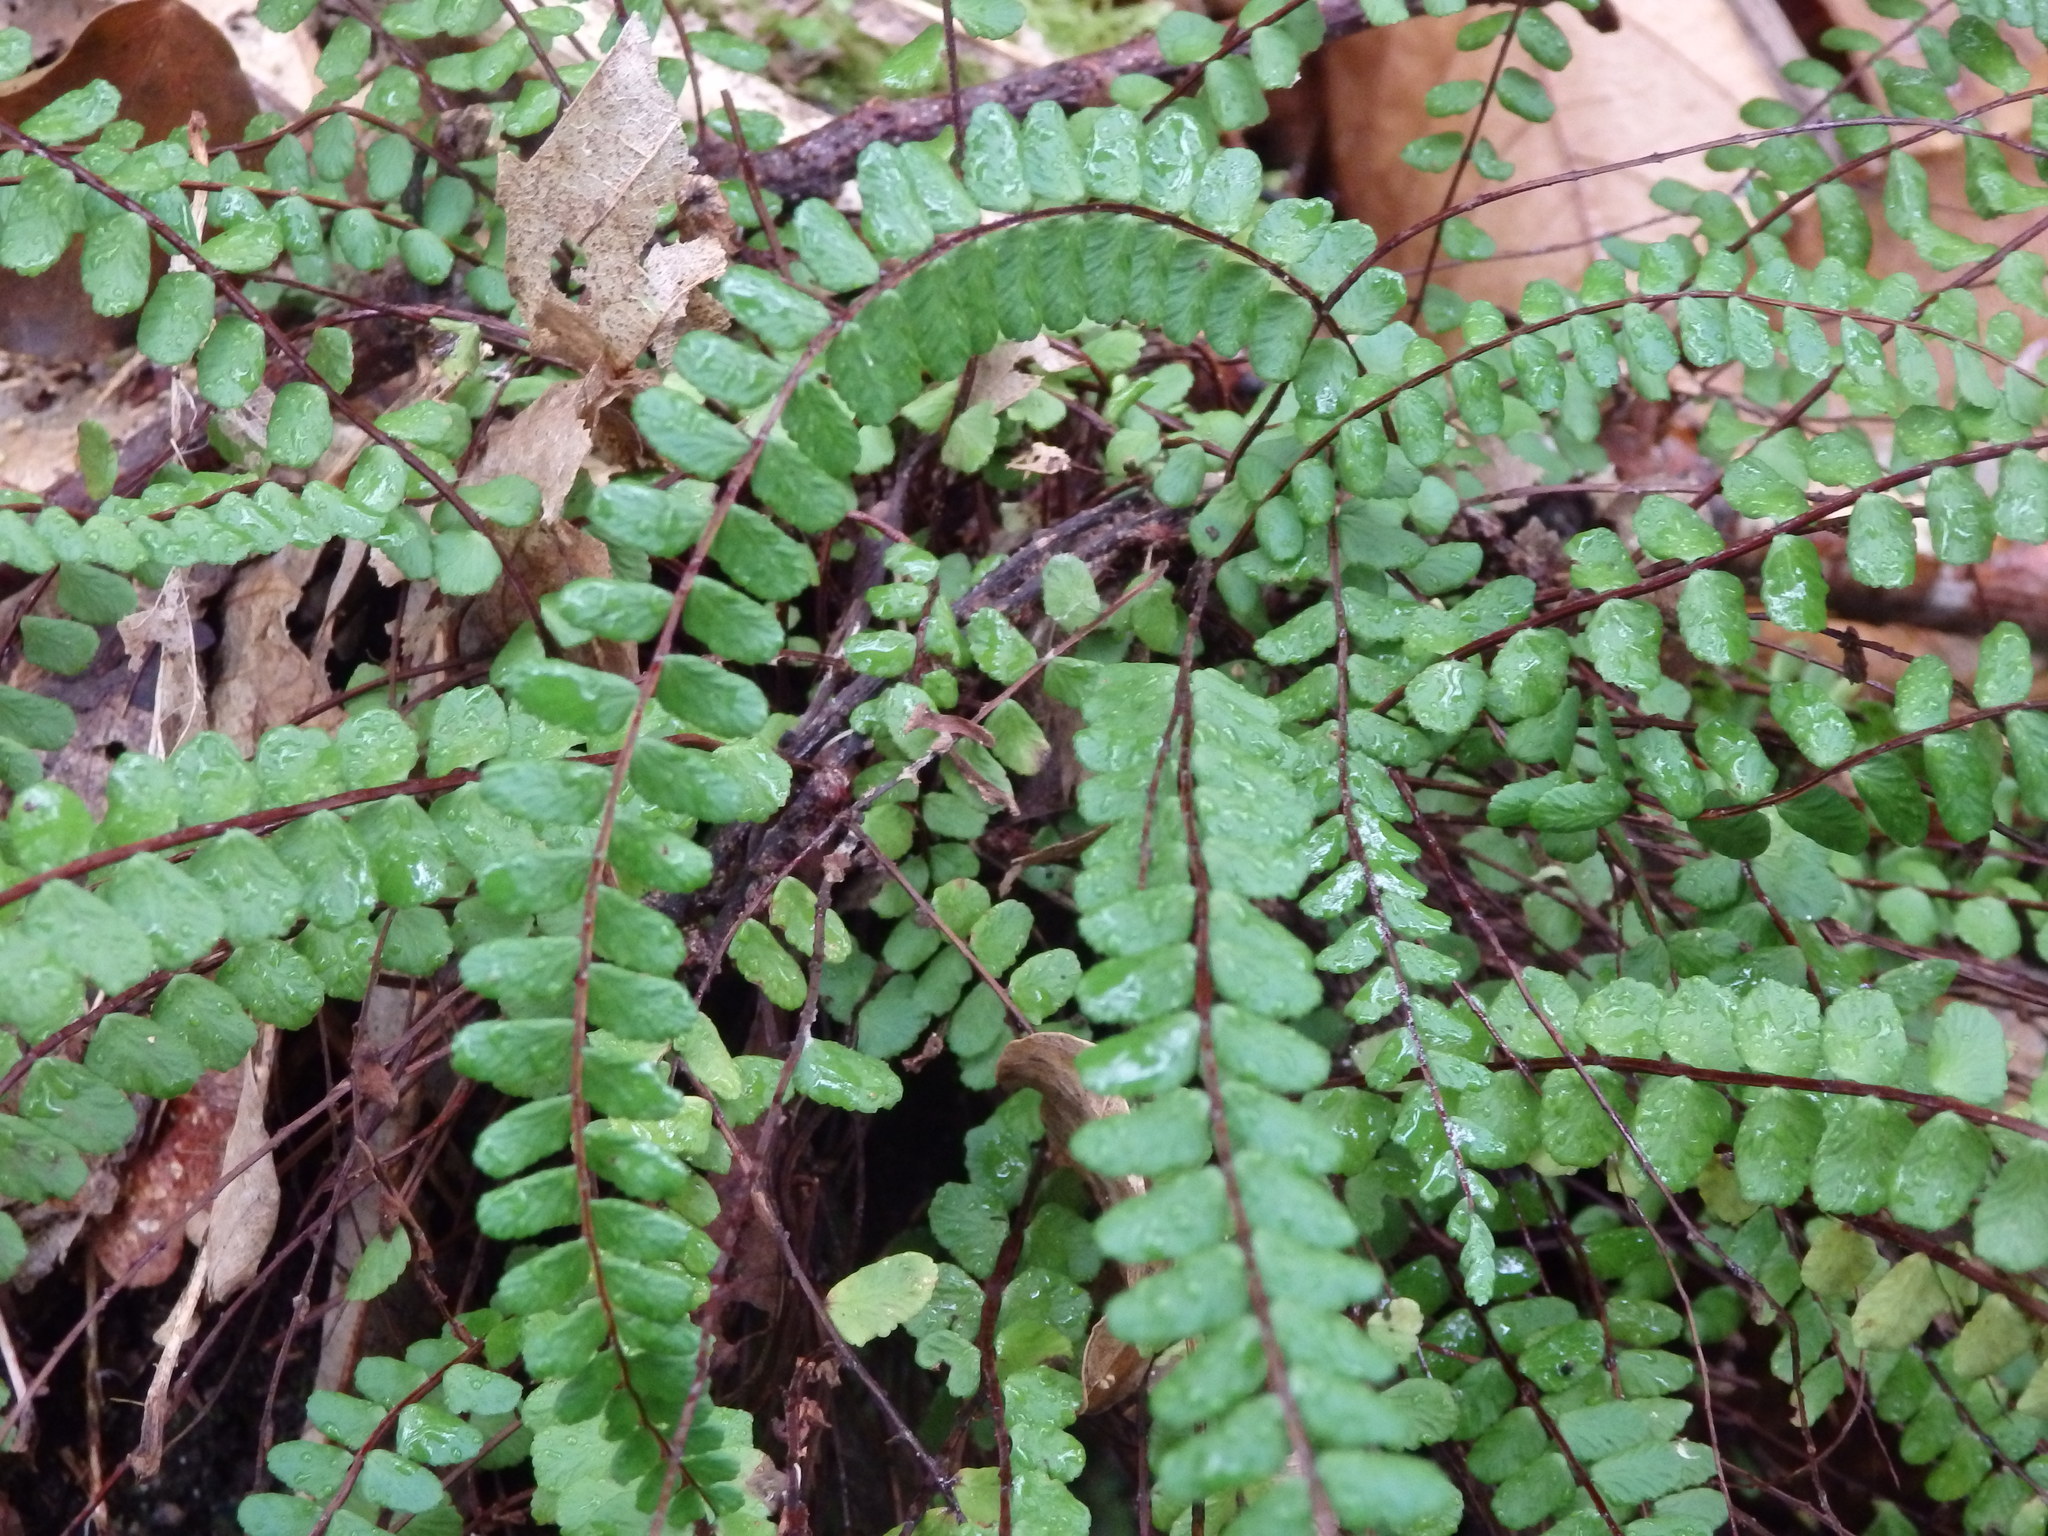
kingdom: Plantae
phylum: Tracheophyta
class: Polypodiopsida
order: Polypodiales
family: Aspleniaceae
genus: Asplenium
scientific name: Asplenium trichomanes
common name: Maidenhair spleenwort
